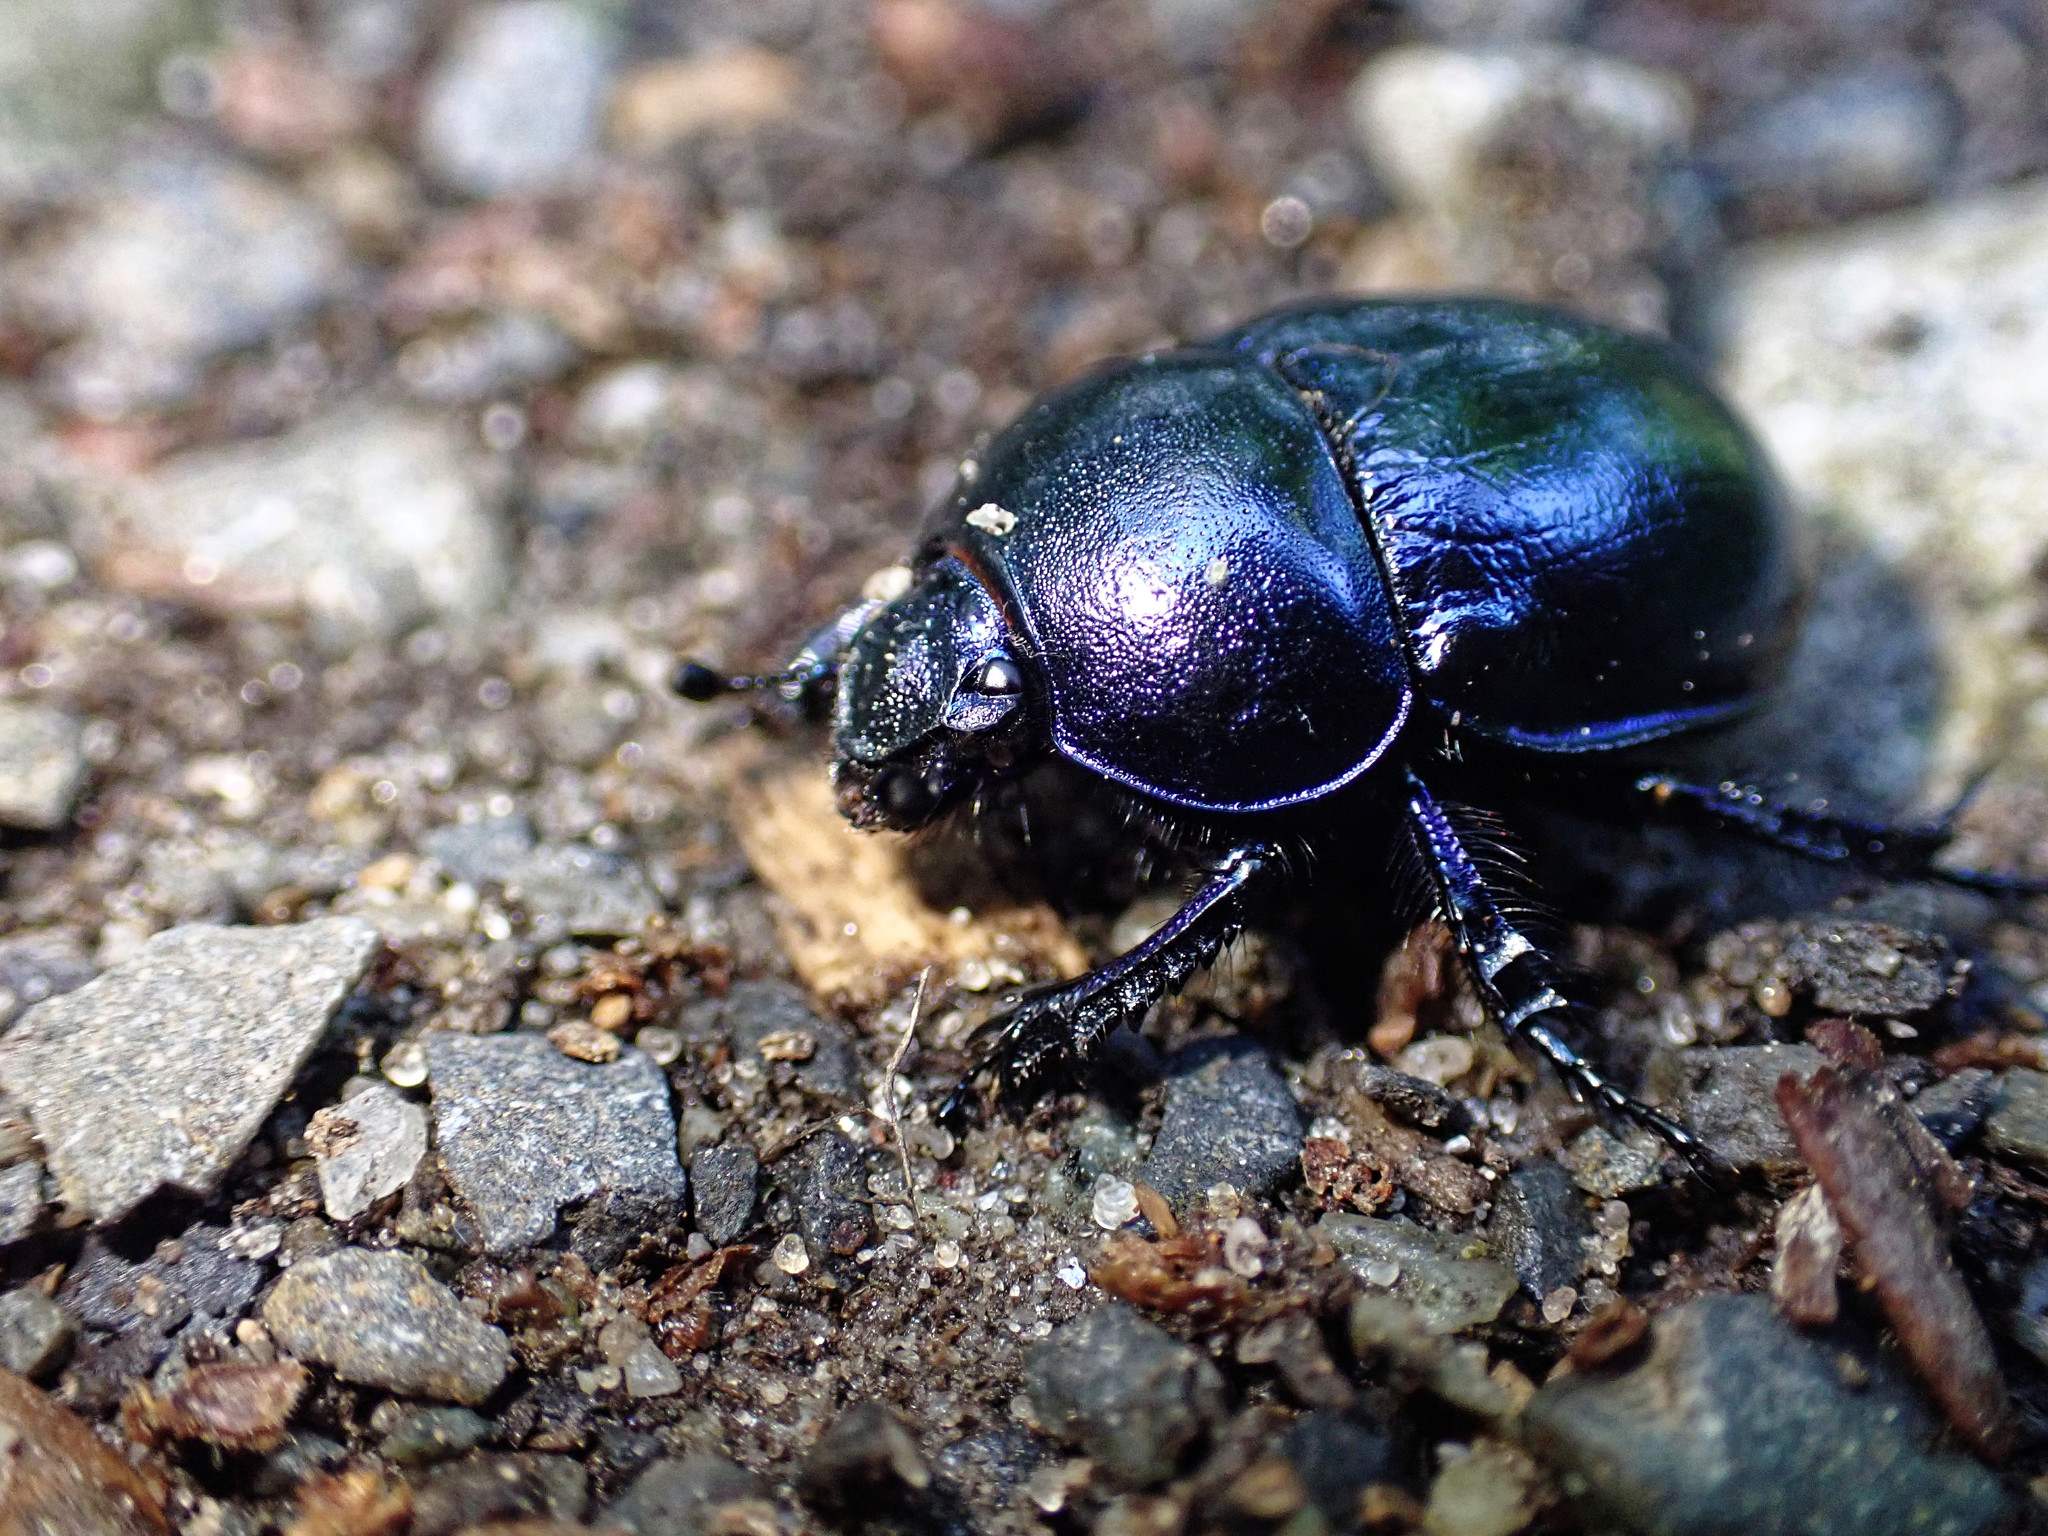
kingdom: Animalia
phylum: Arthropoda
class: Insecta
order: Coleoptera
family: Geotrupidae
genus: Trypocopris
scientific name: Trypocopris vernalis
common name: Spring dumbledor
